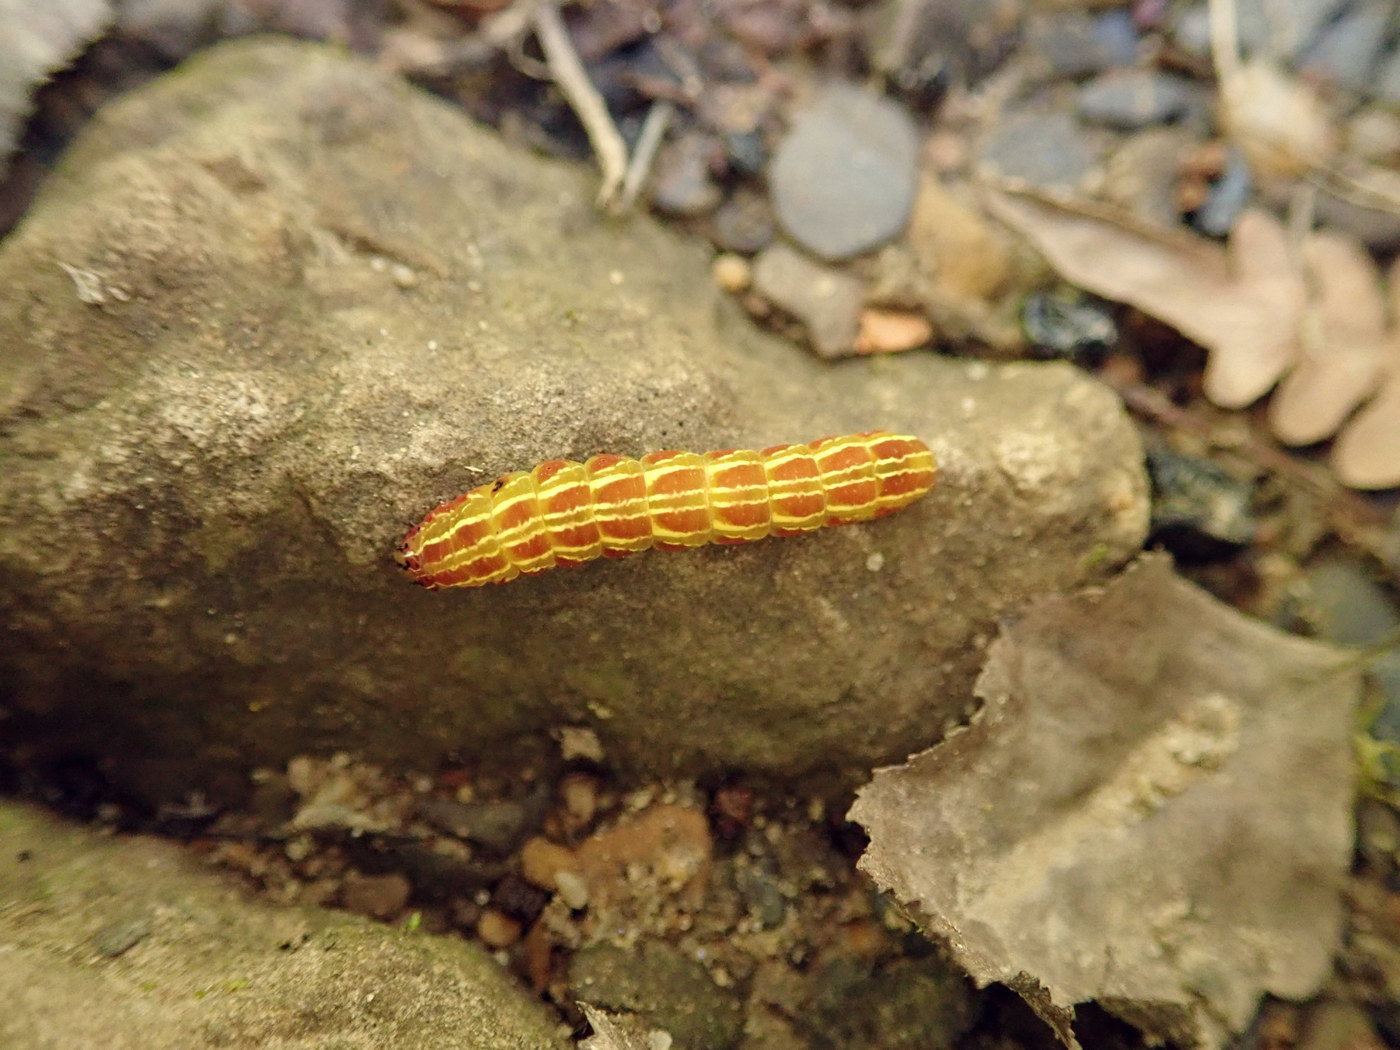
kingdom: Animalia
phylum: Arthropoda
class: Insecta
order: Lepidoptera
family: Noctuidae
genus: Callopistria
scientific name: Callopistria cordata
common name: Silver-spotted fern moth
